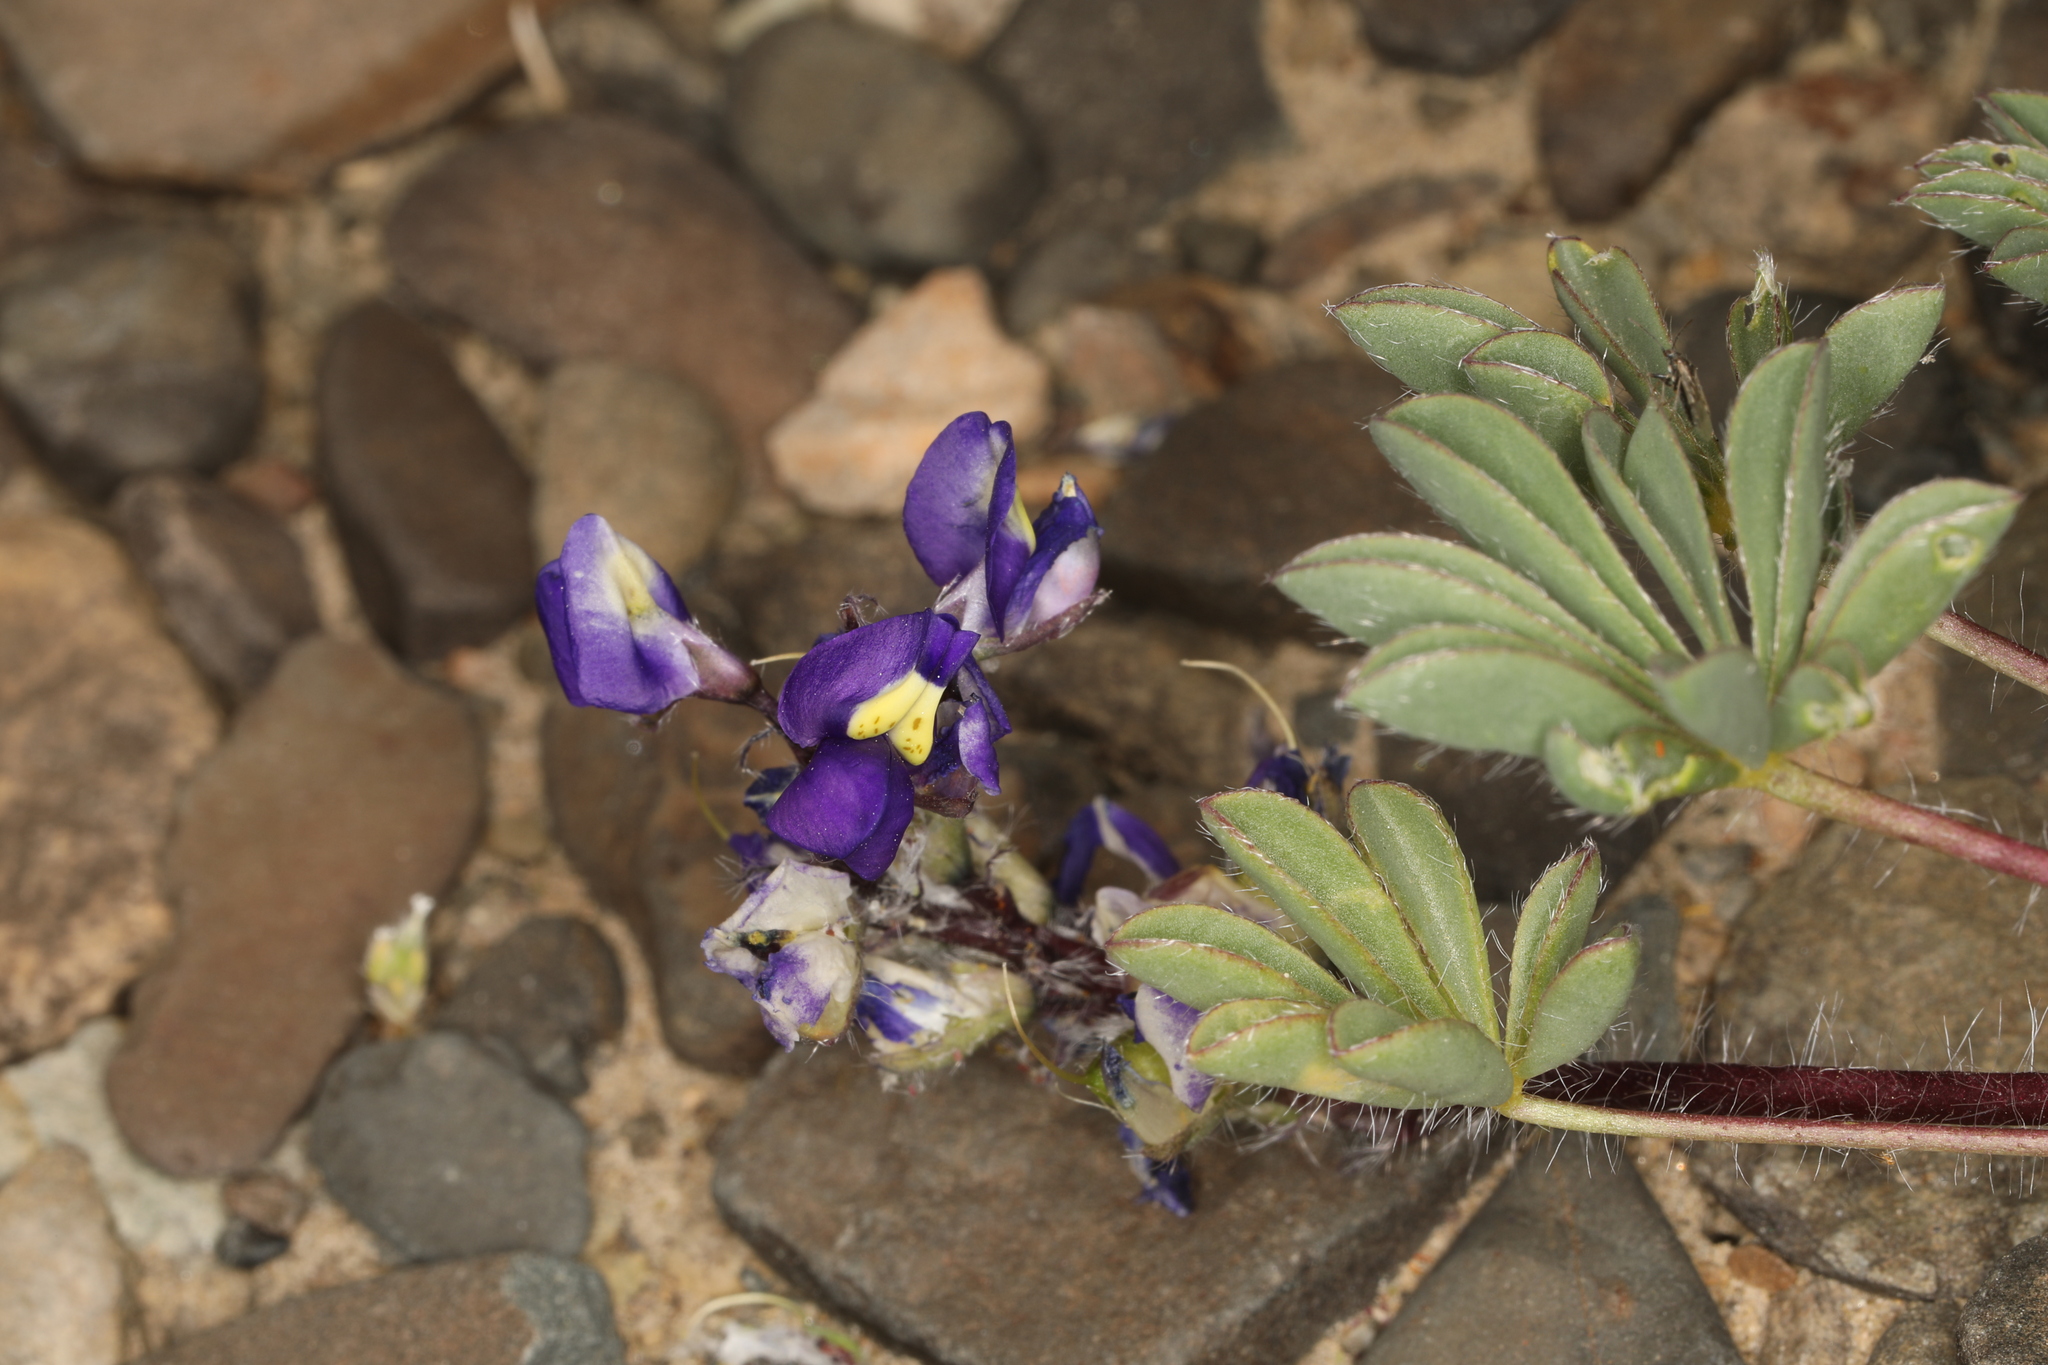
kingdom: Plantae
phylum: Tracheophyta
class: Magnoliopsida
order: Fabales
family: Fabaceae
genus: Lupinus
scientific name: Lupinus flavoculatus
